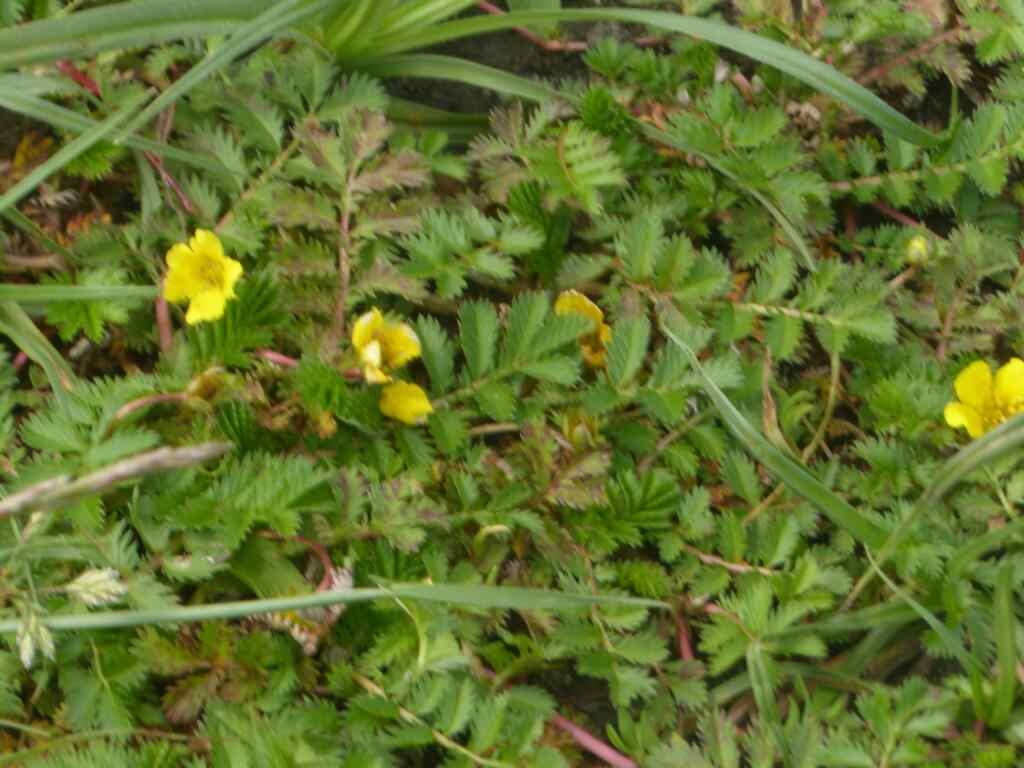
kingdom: Plantae
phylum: Tracheophyta
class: Magnoliopsida
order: Rosales
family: Rosaceae
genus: Argentina
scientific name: Argentina anserina
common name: Common silverweed
